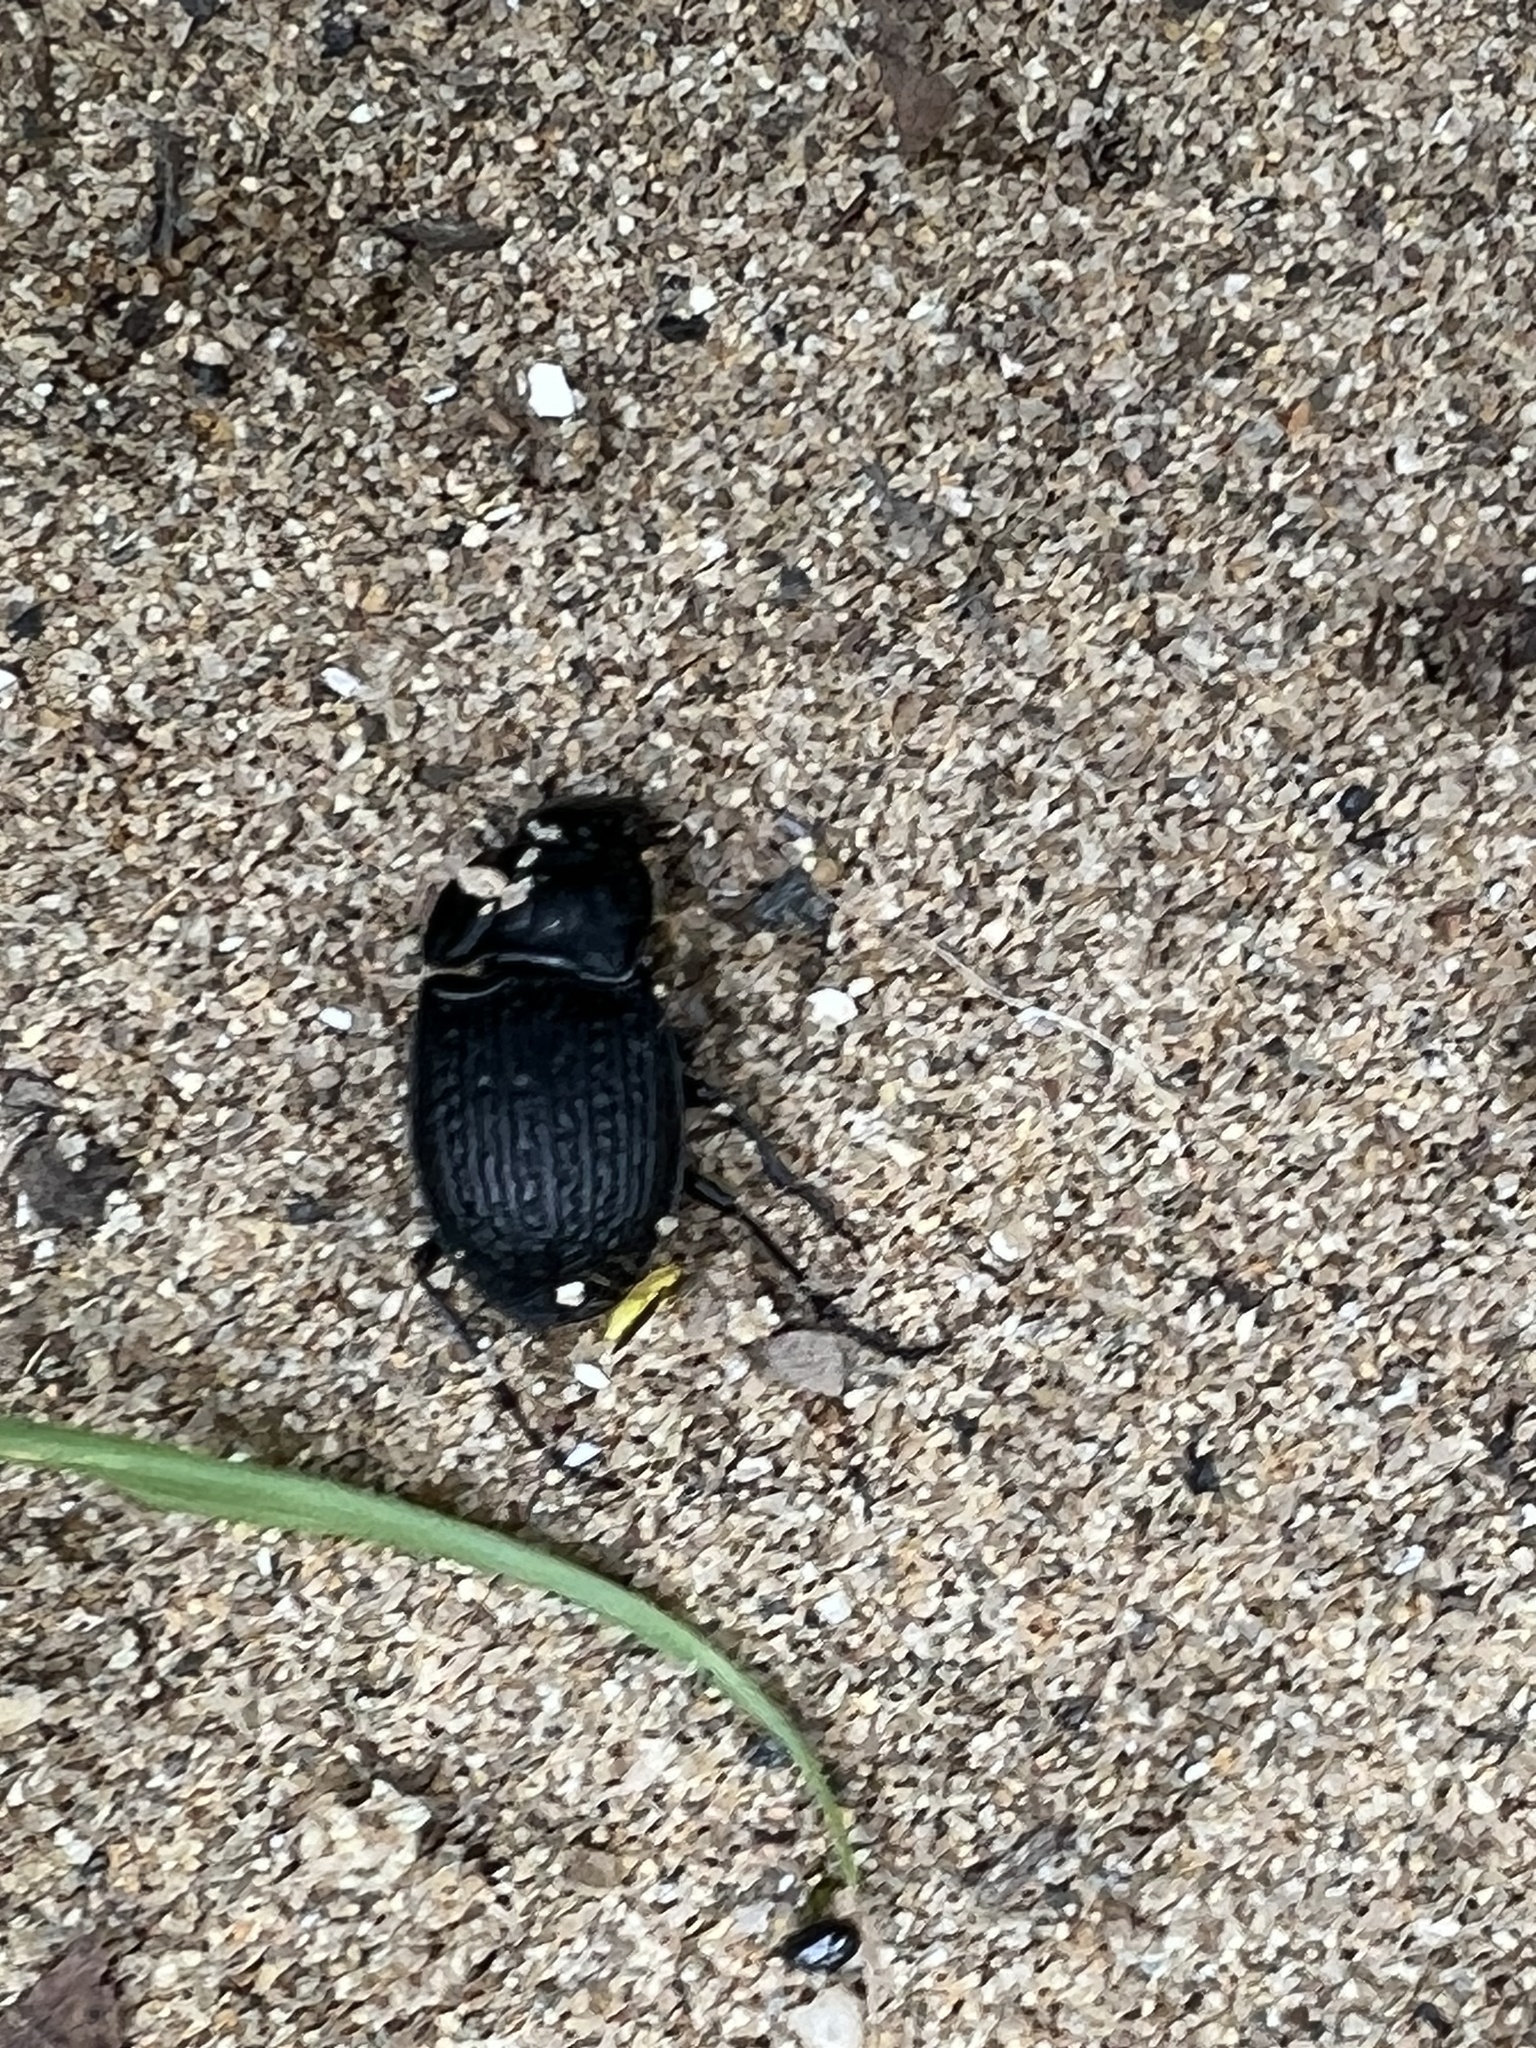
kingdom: Animalia
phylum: Arthropoda
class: Insecta
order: Coleoptera
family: Carabidae
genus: Dicaelus
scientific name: Dicaelus sculptilis
